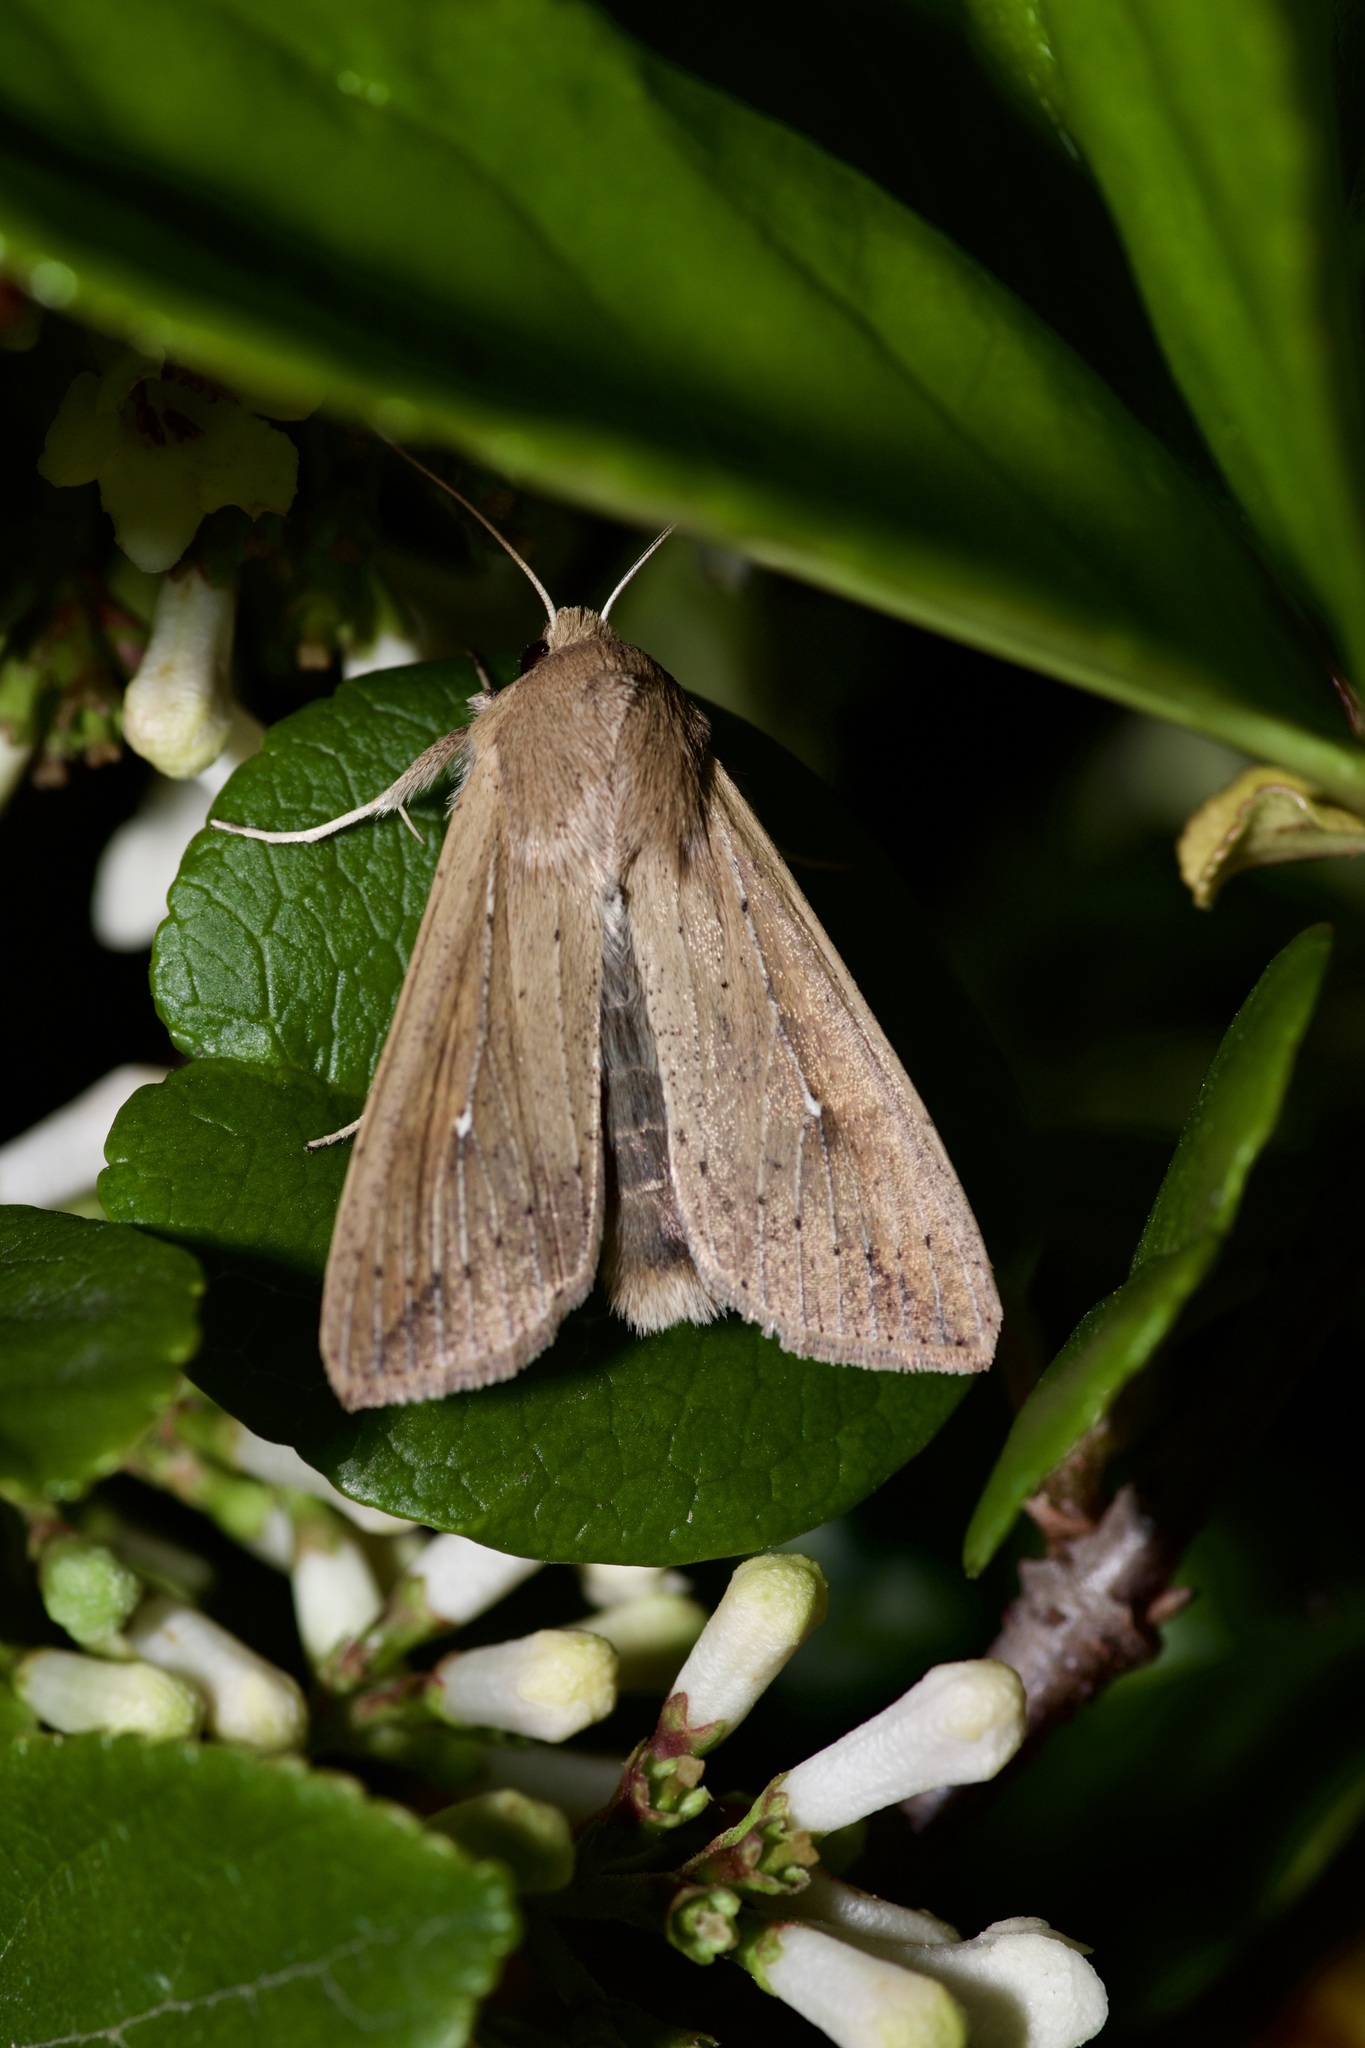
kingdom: Animalia
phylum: Arthropoda
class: Insecta
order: Lepidoptera
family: Noctuidae
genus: Mythimna
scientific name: Mythimna unipuncta
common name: White-speck
